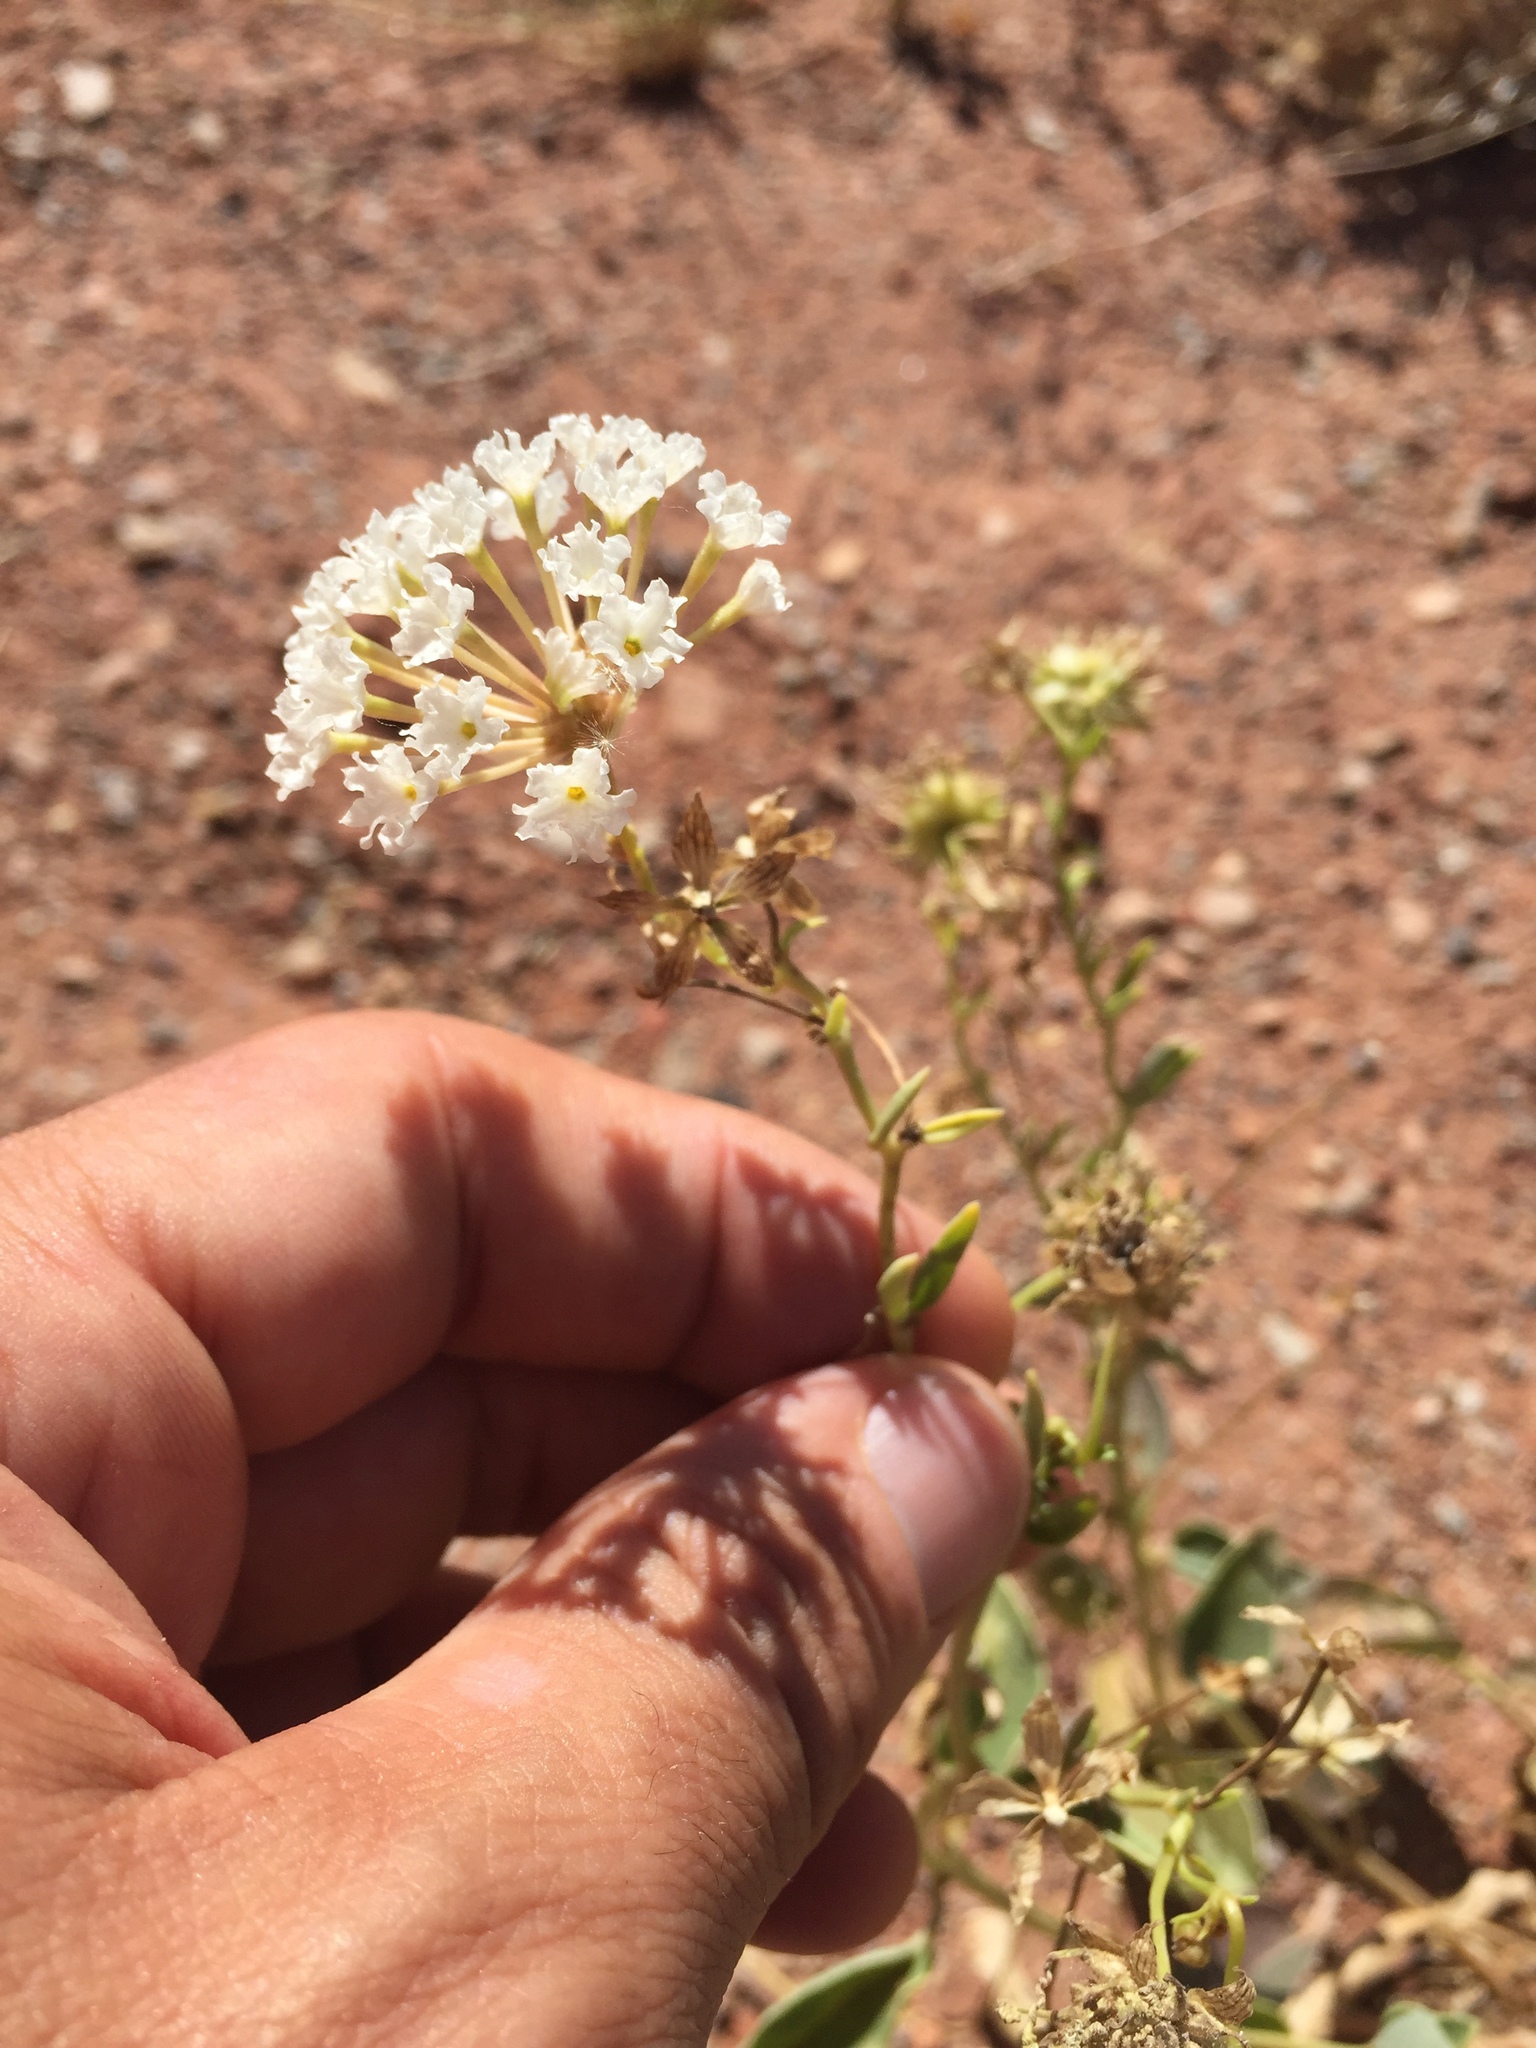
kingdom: Plantae
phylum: Tracheophyta
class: Magnoliopsida
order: Caryophyllales
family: Nyctaginaceae
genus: Abronia
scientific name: Abronia elliptica
